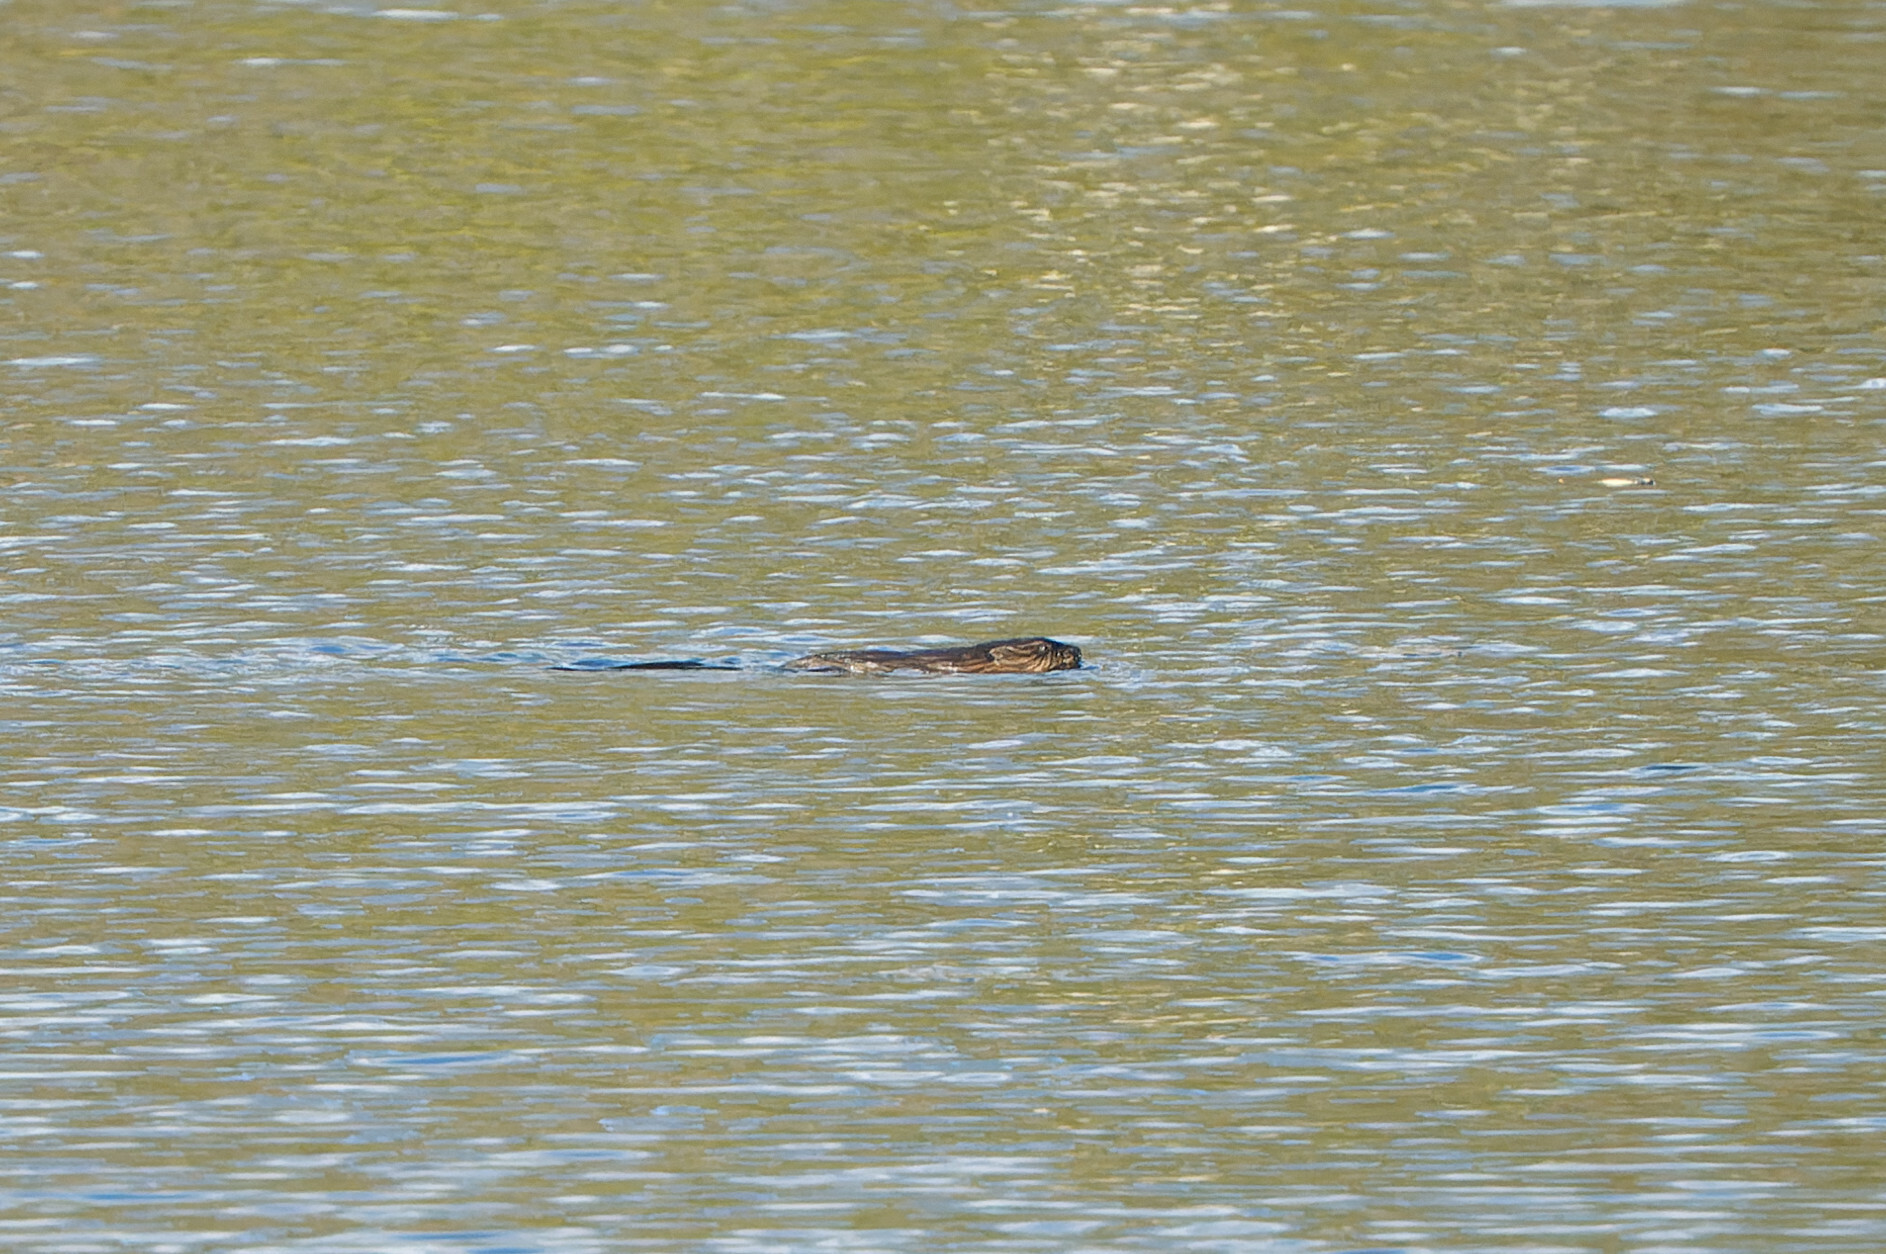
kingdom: Animalia
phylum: Chordata
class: Mammalia
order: Rodentia
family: Cricetidae
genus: Ondatra
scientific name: Ondatra zibethicus
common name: Muskrat
